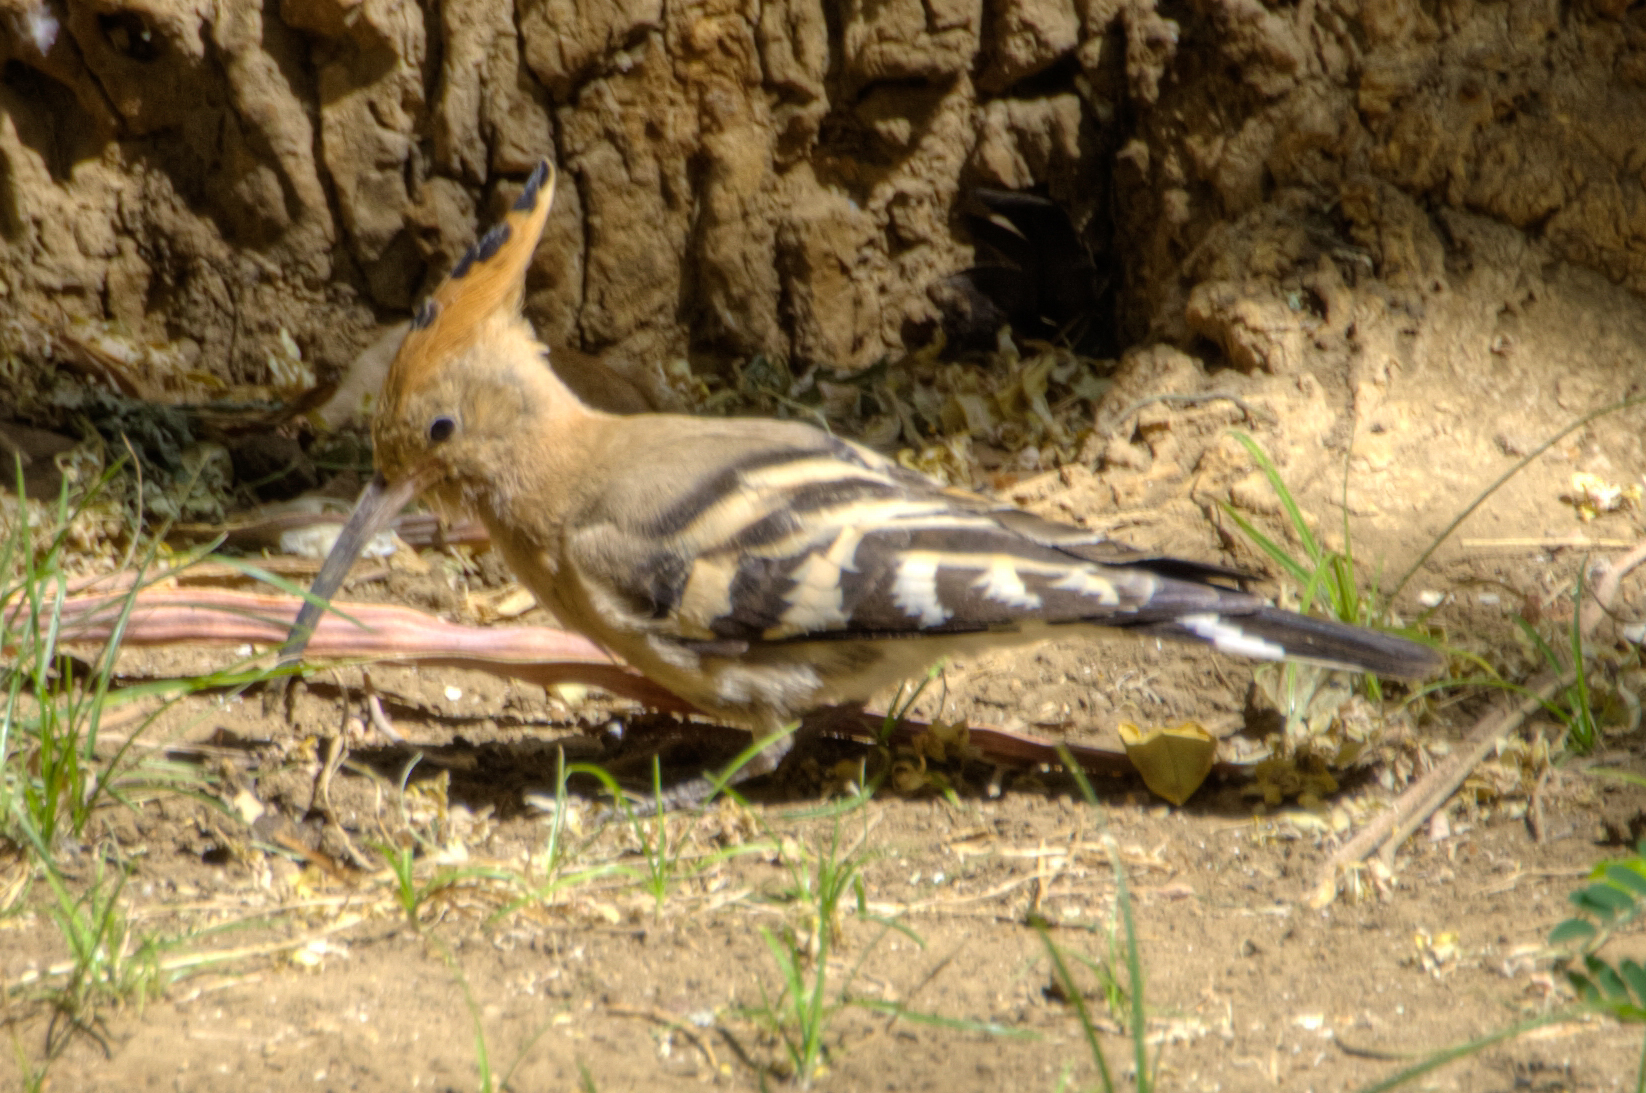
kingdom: Animalia
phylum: Chordata
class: Aves
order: Bucerotiformes
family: Upupidae
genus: Upupa
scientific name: Upupa epops
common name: Eurasian hoopoe
